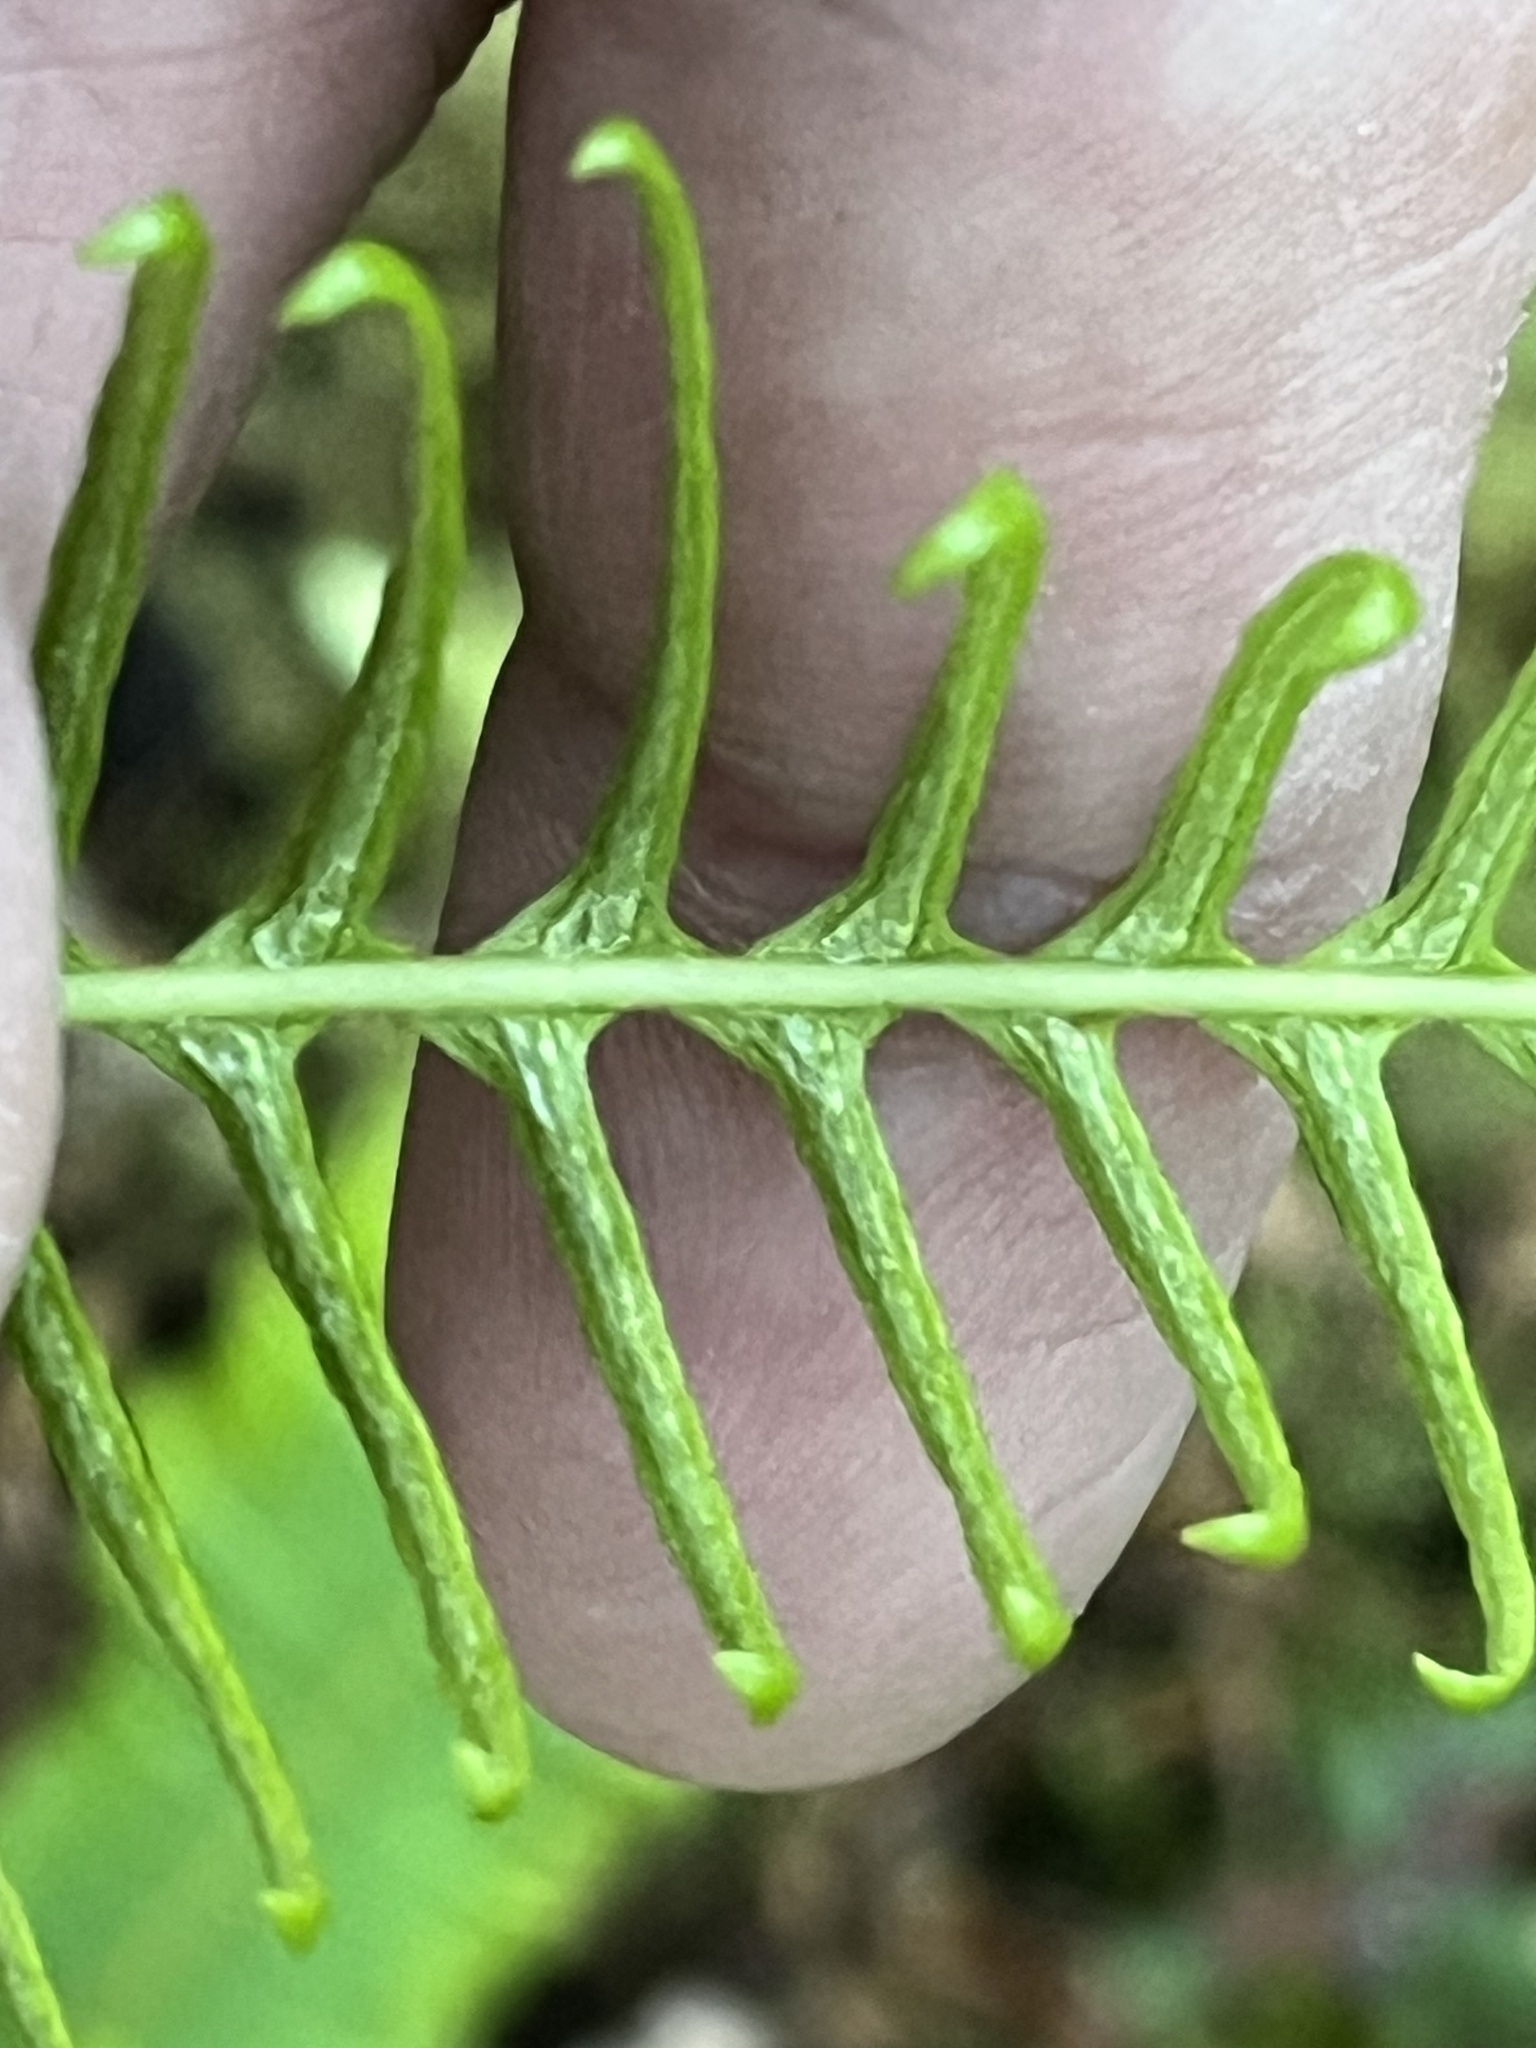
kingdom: Plantae
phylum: Tracheophyta
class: Polypodiopsida
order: Polypodiales
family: Blechnaceae
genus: Struthiopteris
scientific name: Struthiopteris spicant
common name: Deer fern
